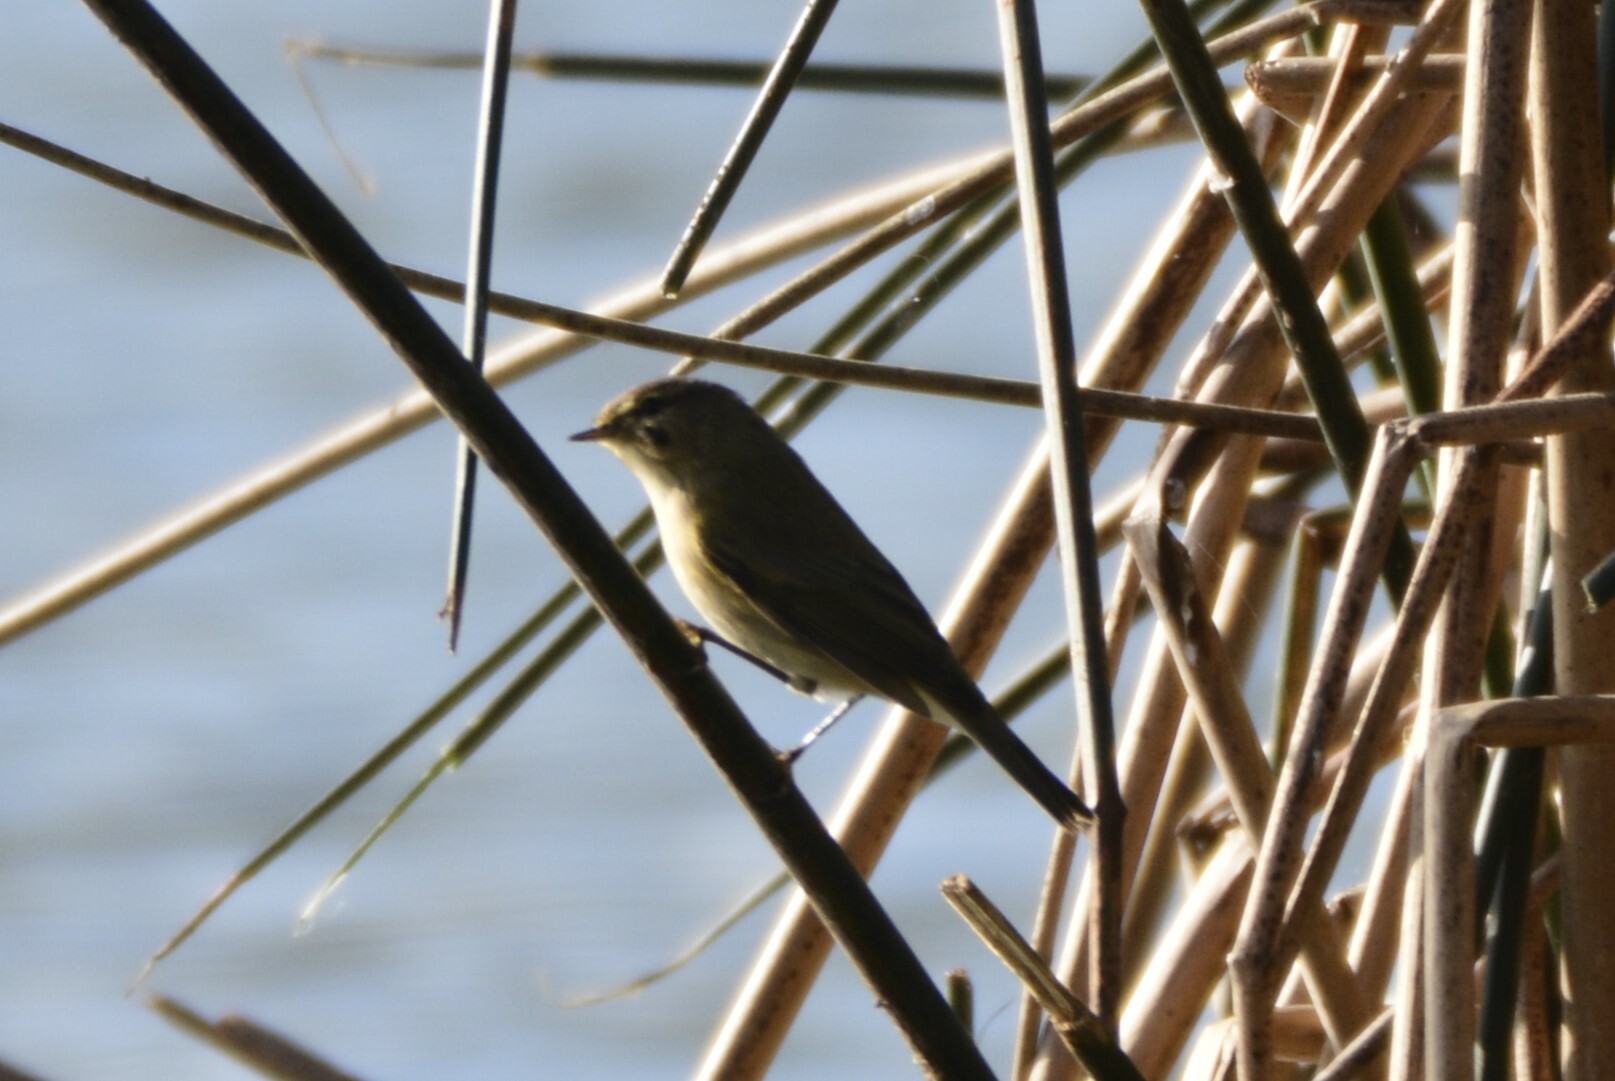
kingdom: Animalia
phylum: Chordata
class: Aves
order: Passeriformes
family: Phylloscopidae
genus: Phylloscopus
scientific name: Phylloscopus collybita
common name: Common chiffchaff
